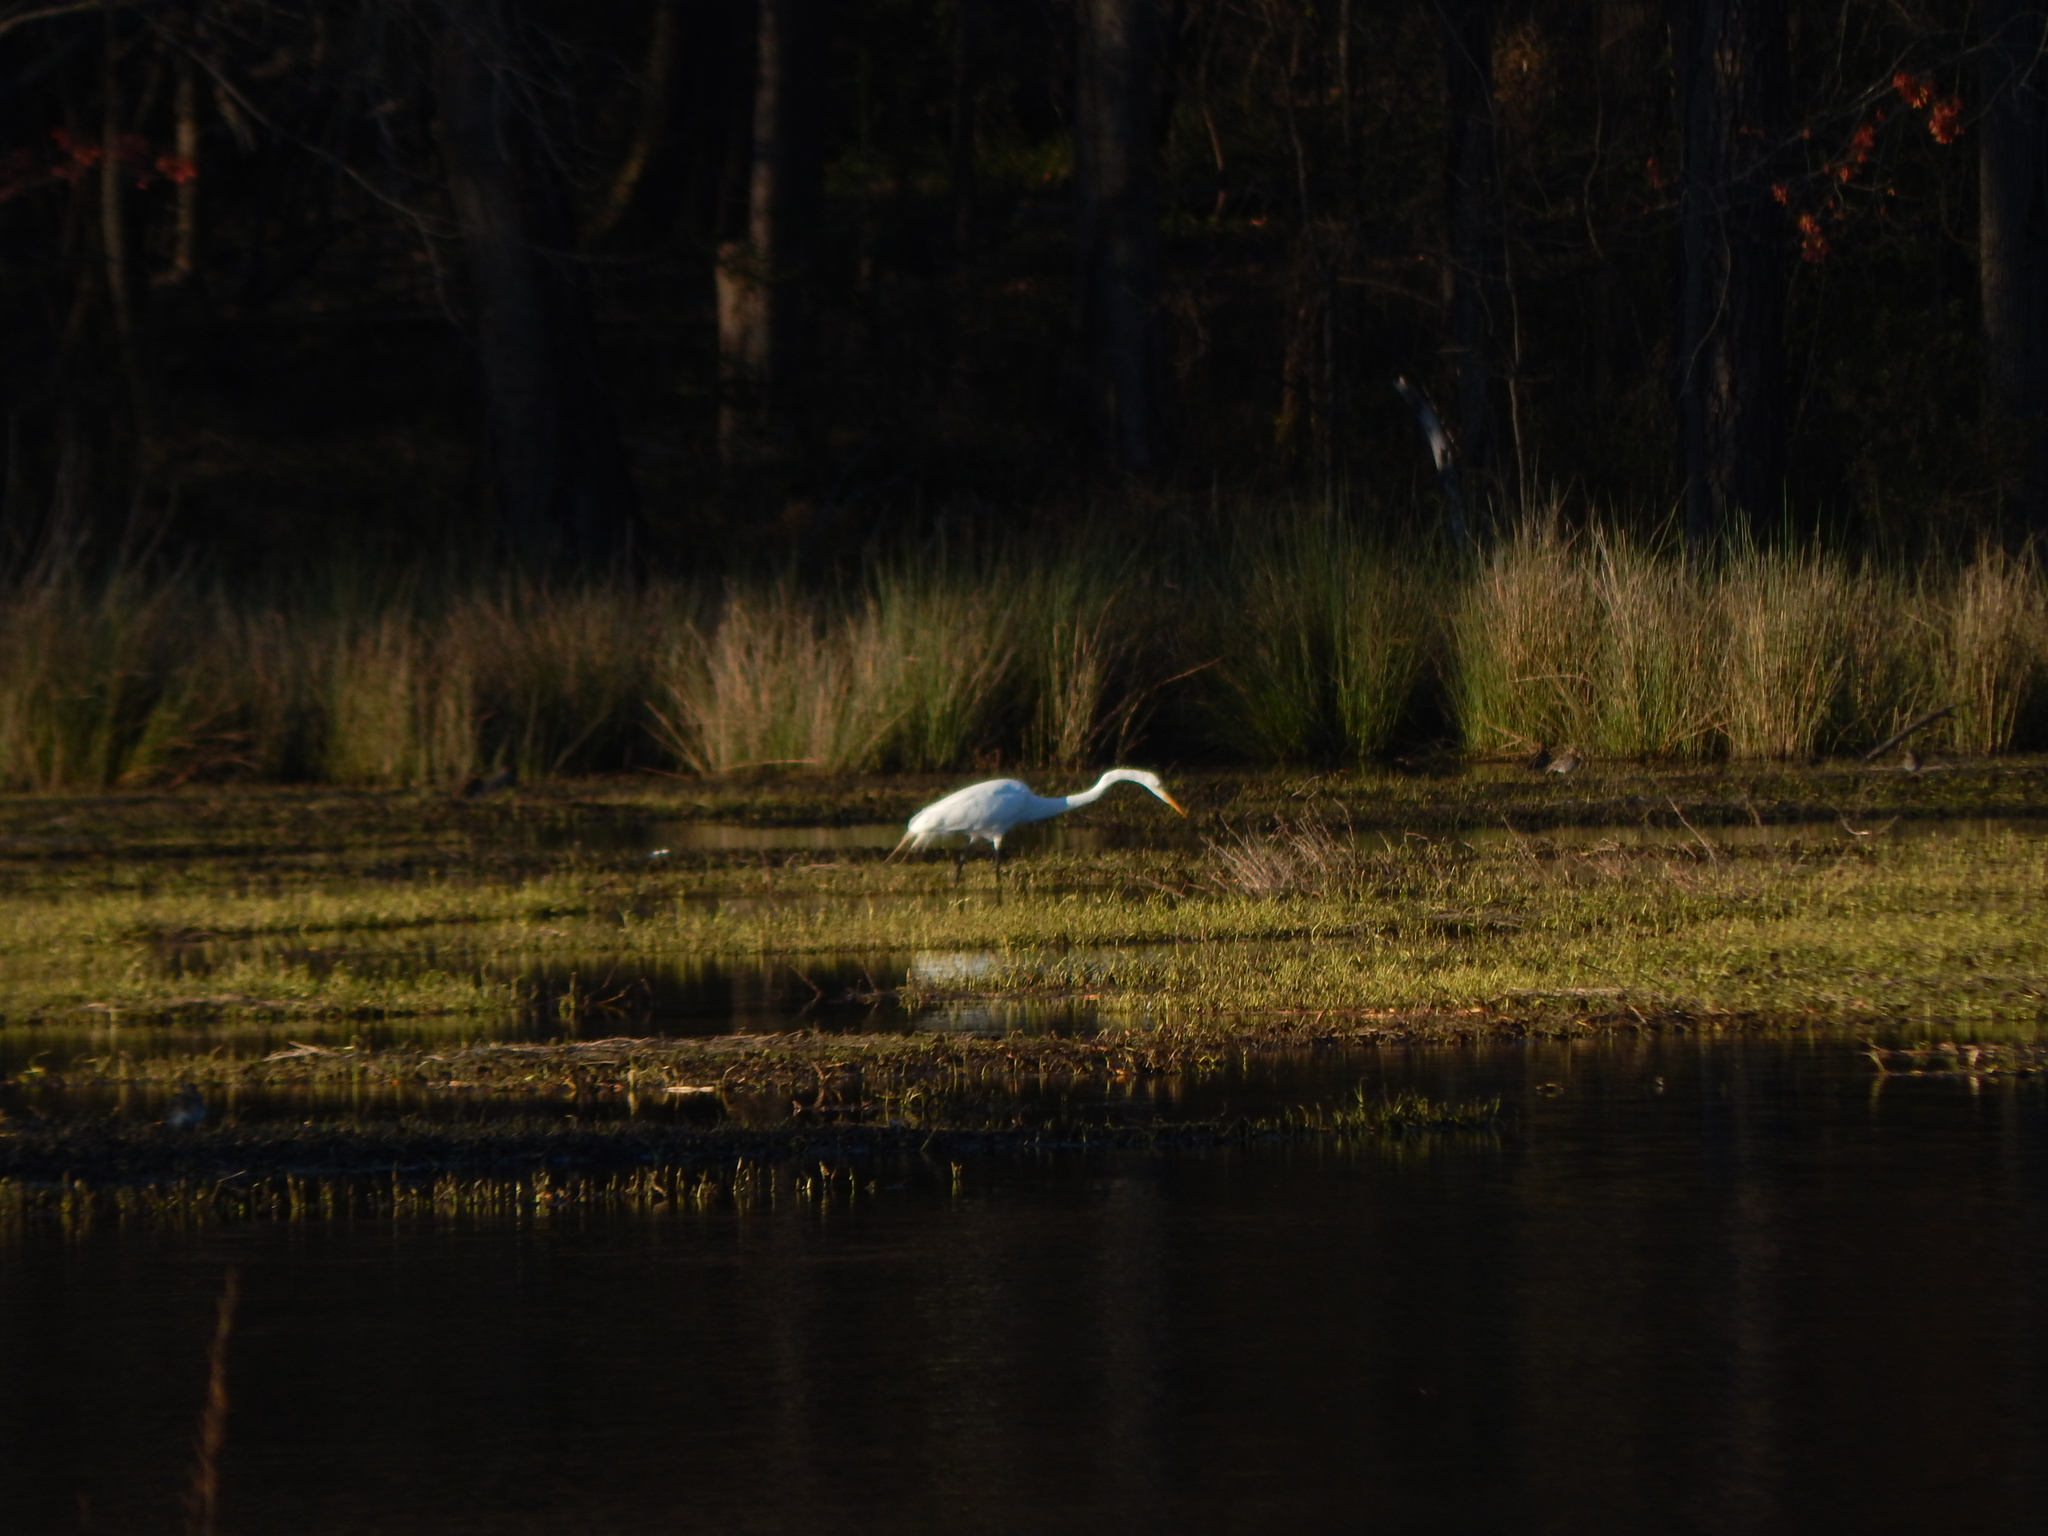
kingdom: Animalia
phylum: Chordata
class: Aves
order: Pelecaniformes
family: Ardeidae
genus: Ardea
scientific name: Ardea alba
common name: Great egret
